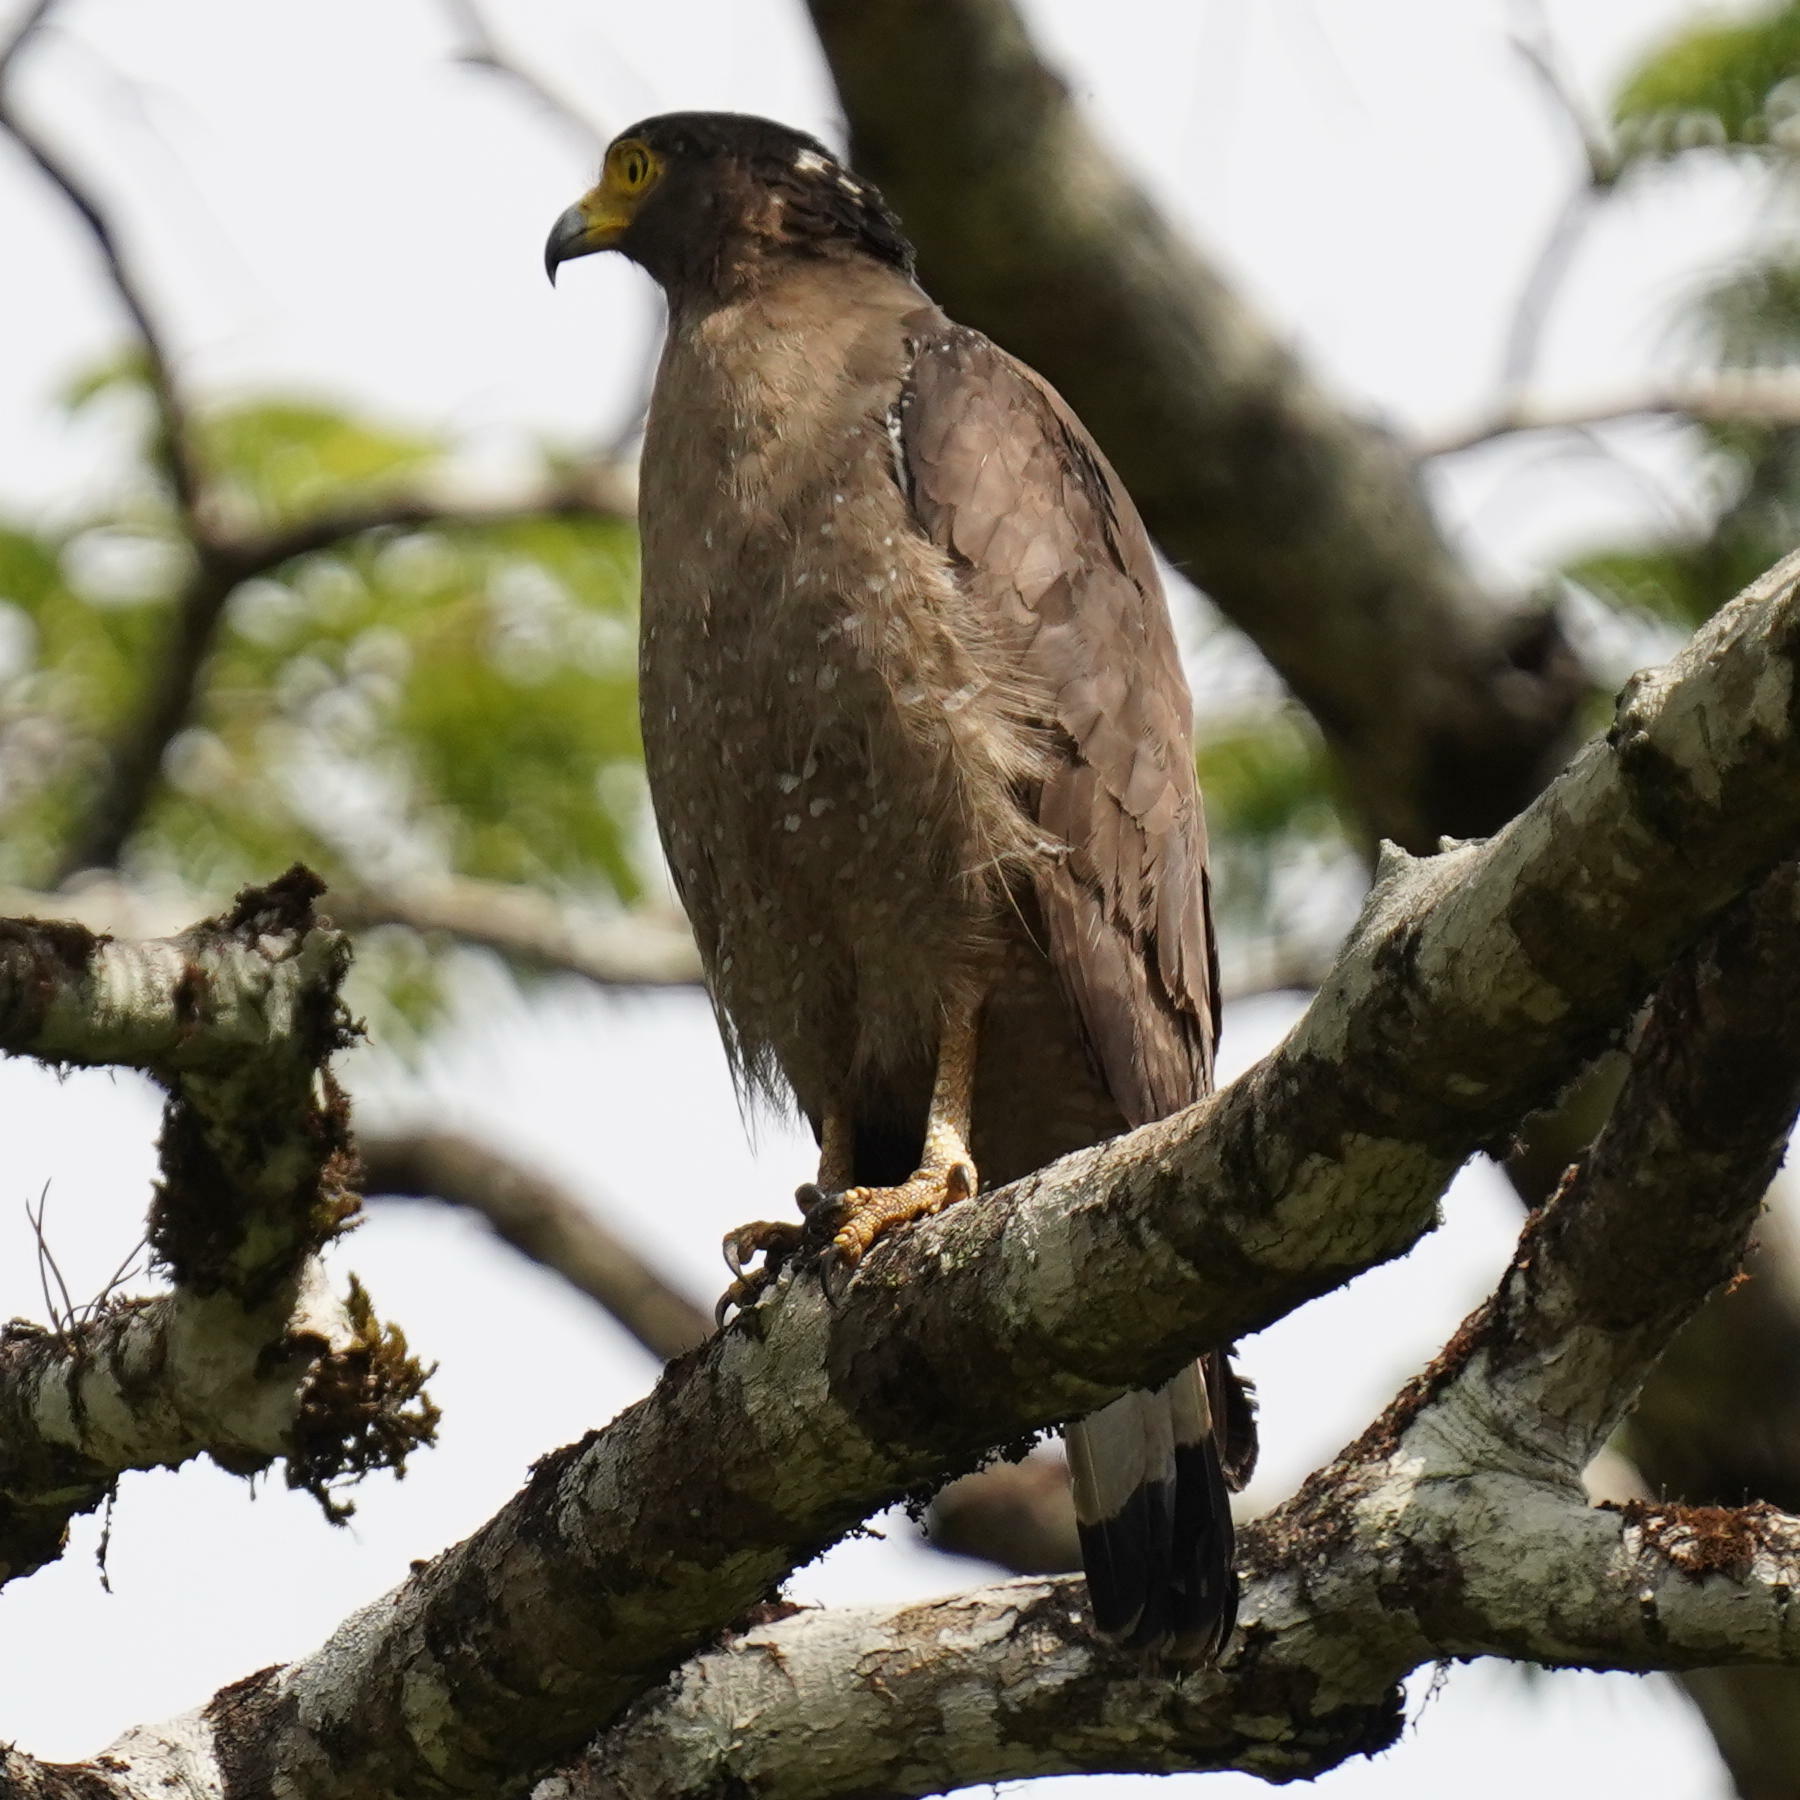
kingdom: Animalia
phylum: Chordata
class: Aves
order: Accipitriformes
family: Accipitridae
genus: Spilornis
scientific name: Spilornis cheela
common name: Crested serpent eagle
